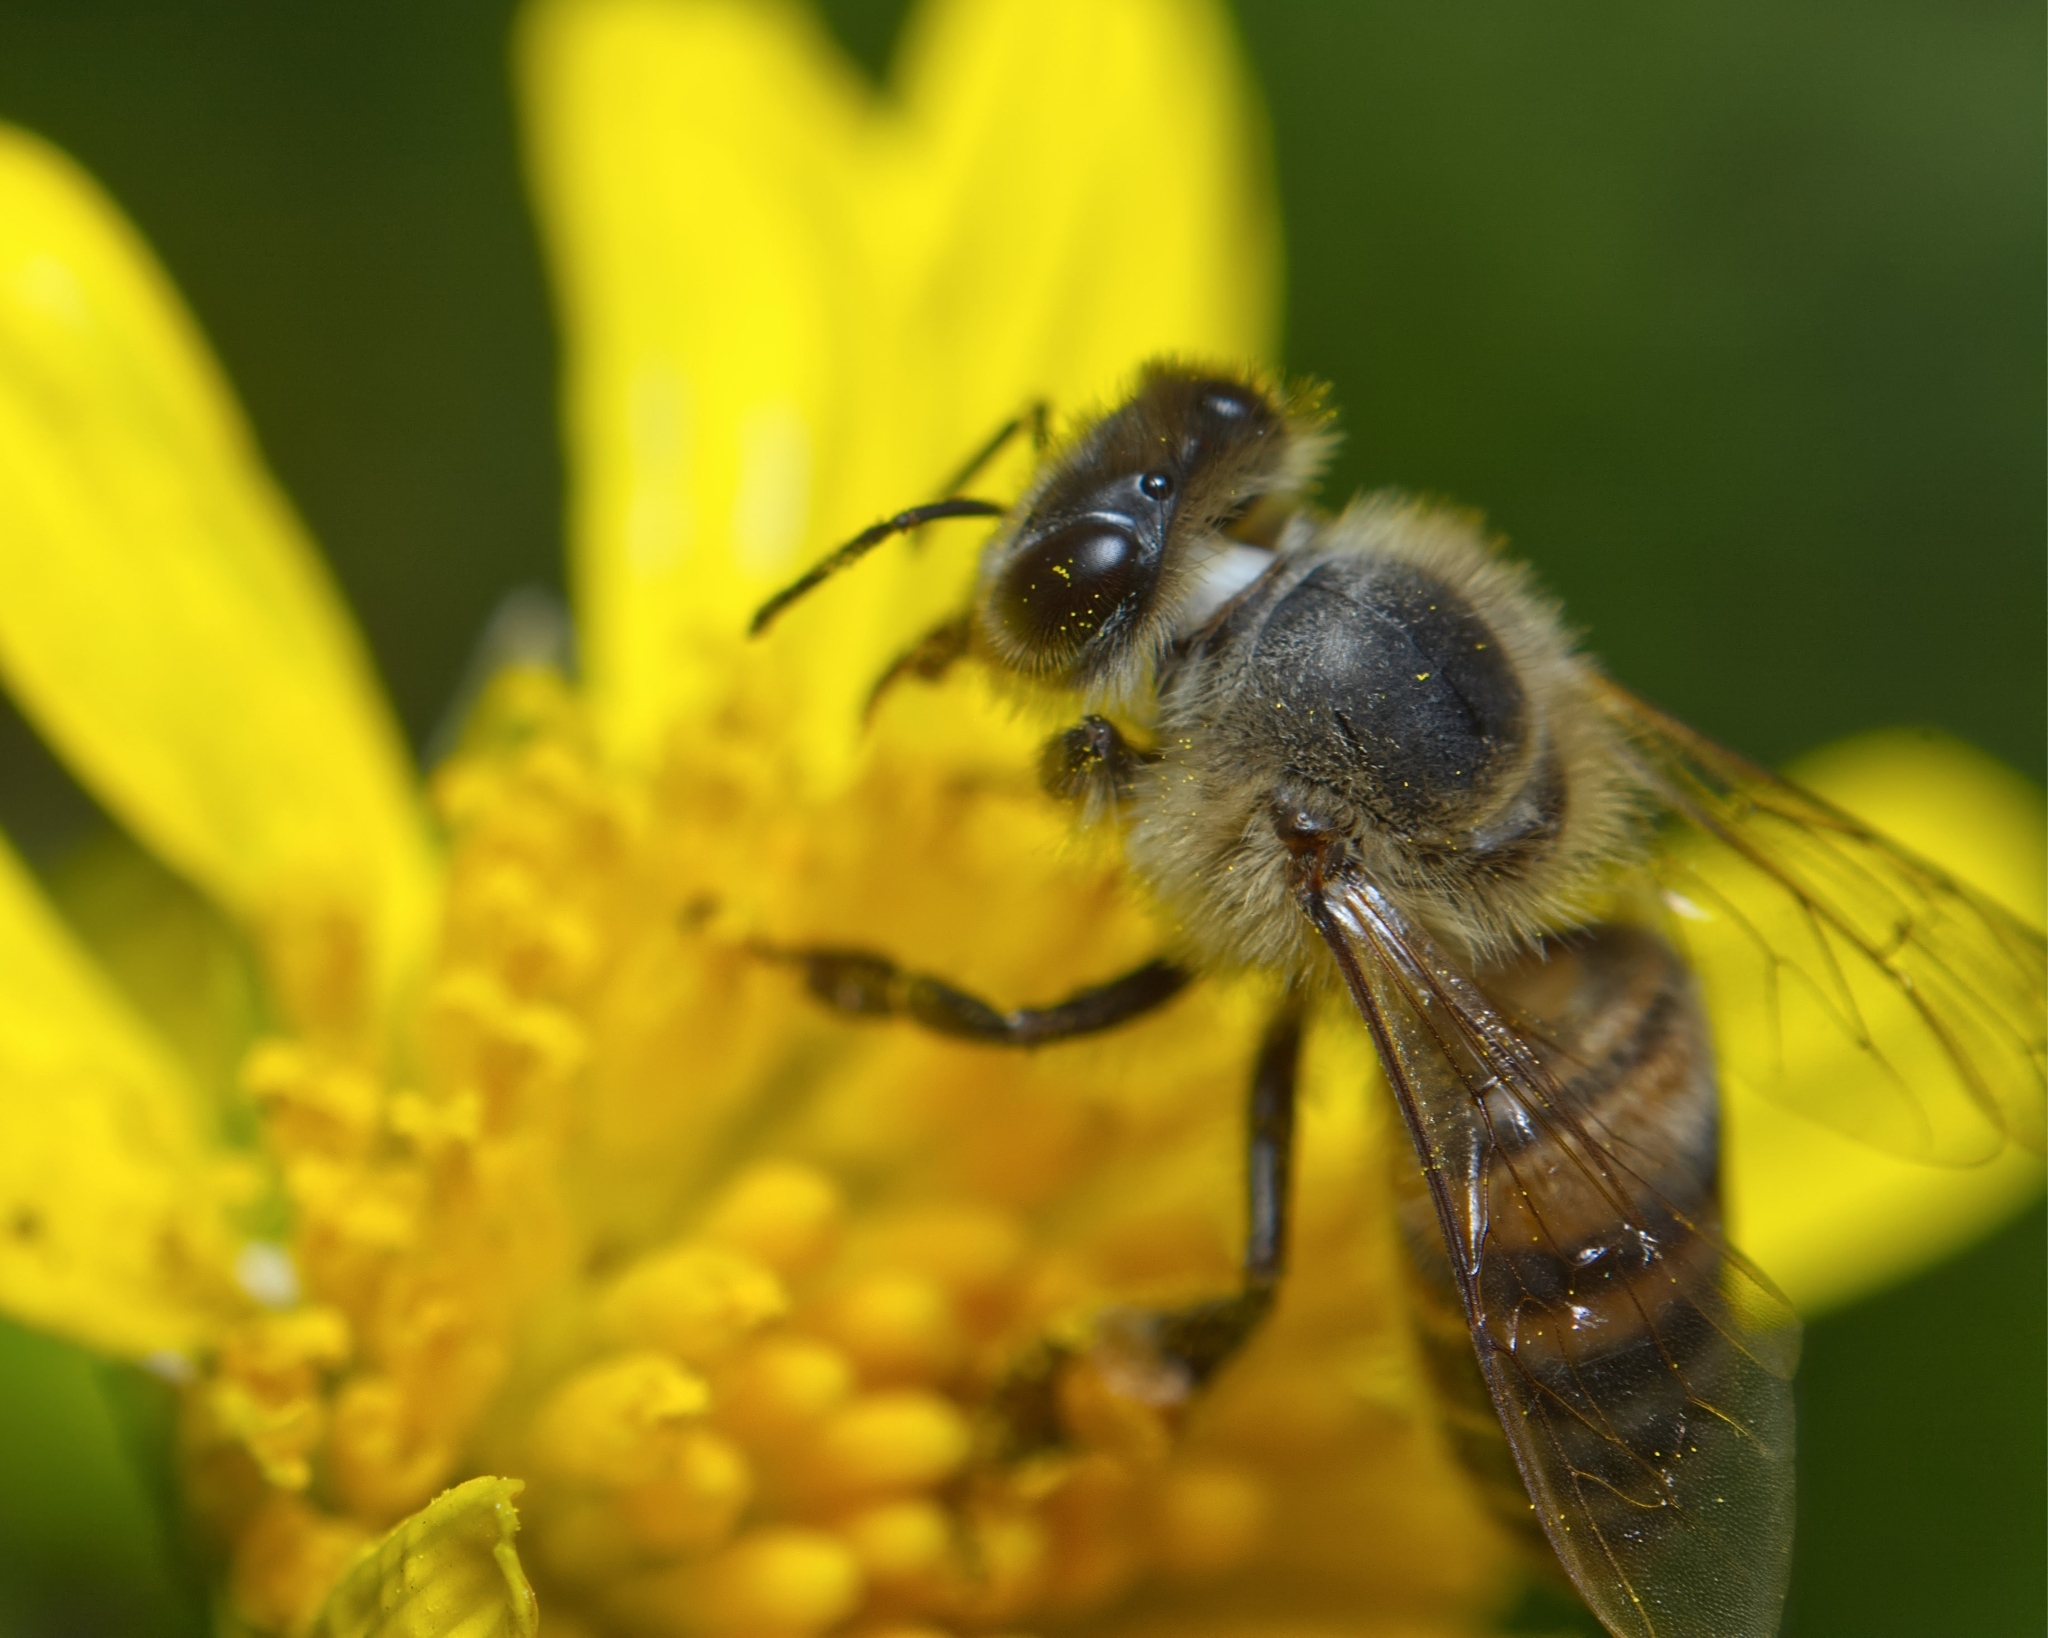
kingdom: Animalia
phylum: Arthropoda
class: Insecta
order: Hymenoptera
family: Apidae
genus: Apis
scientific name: Apis mellifera
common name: Honey bee
